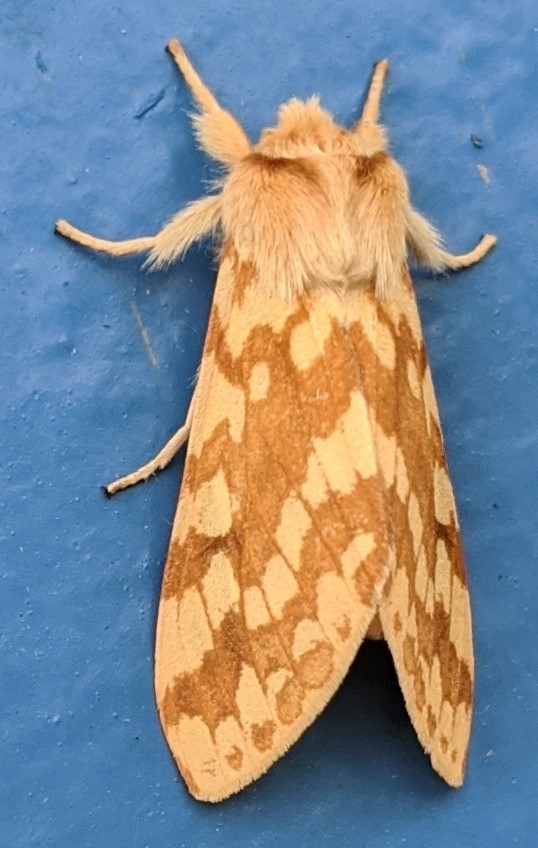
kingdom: Animalia
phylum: Arthropoda
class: Insecta
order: Lepidoptera
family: Erebidae
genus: Lophocampa
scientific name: Lophocampa maculata
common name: Spotted tussock moth
